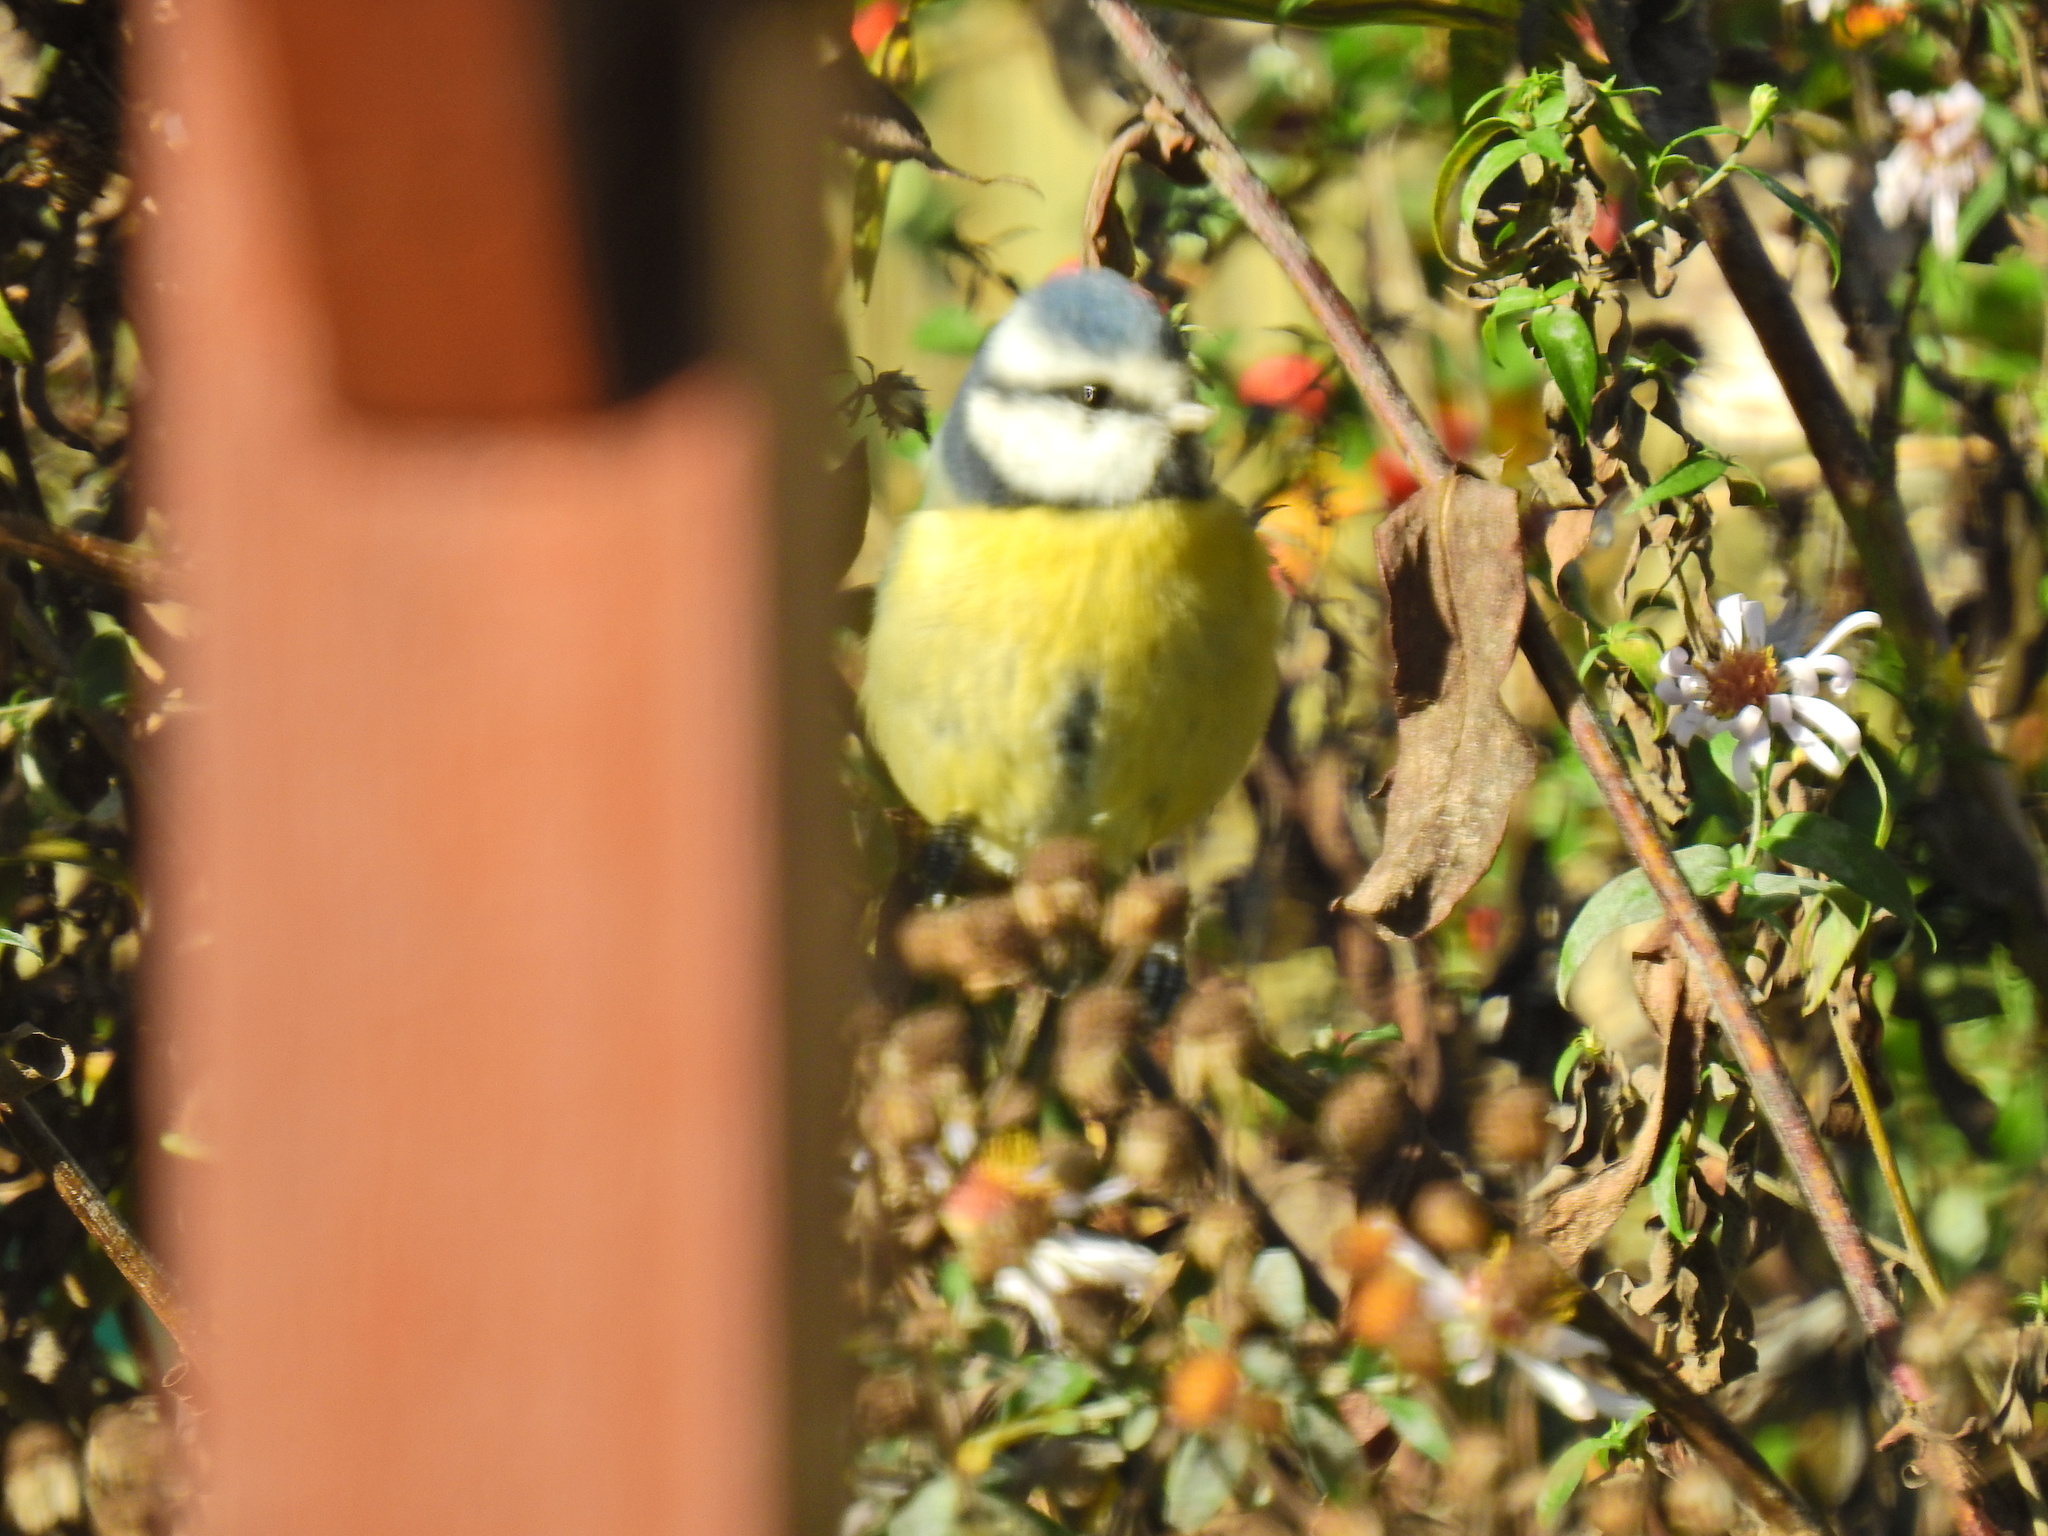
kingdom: Animalia
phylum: Chordata
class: Aves
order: Passeriformes
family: Paridae
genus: Cyanistes
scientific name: Cyanistes caeruleus
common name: Eurasian blue tit
